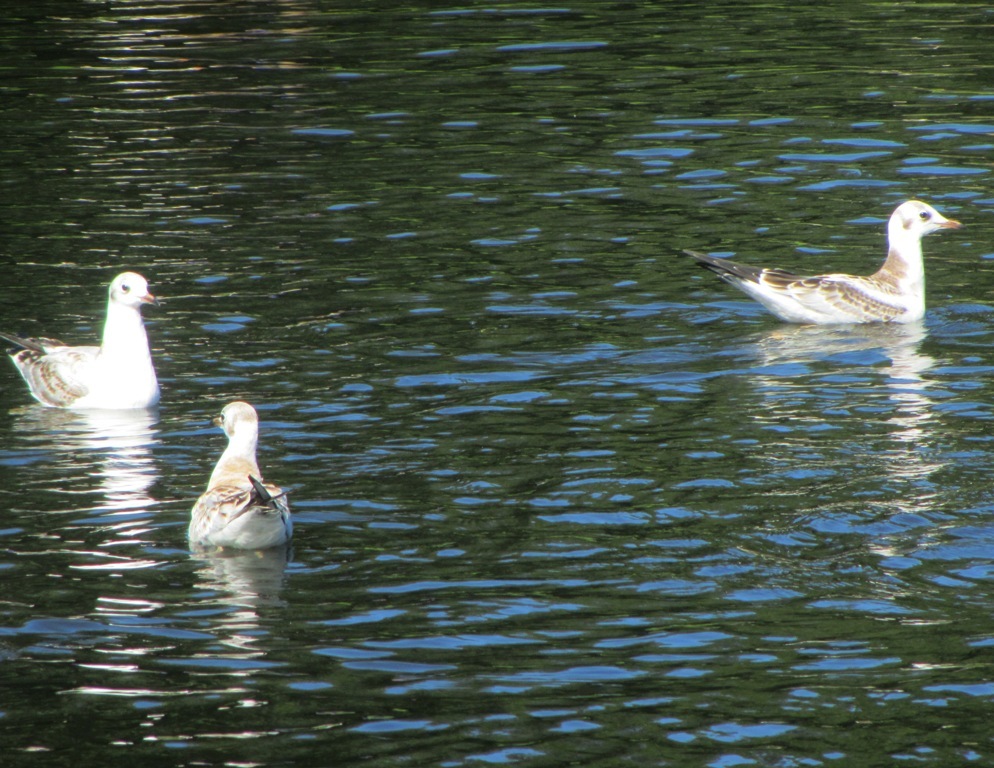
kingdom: Animalia
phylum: Chordata
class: Aves
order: Charadriiformes
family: Laridae
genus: Chroicocephalus
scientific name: Chroicocephalus ridibundus
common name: Black-headed gull
